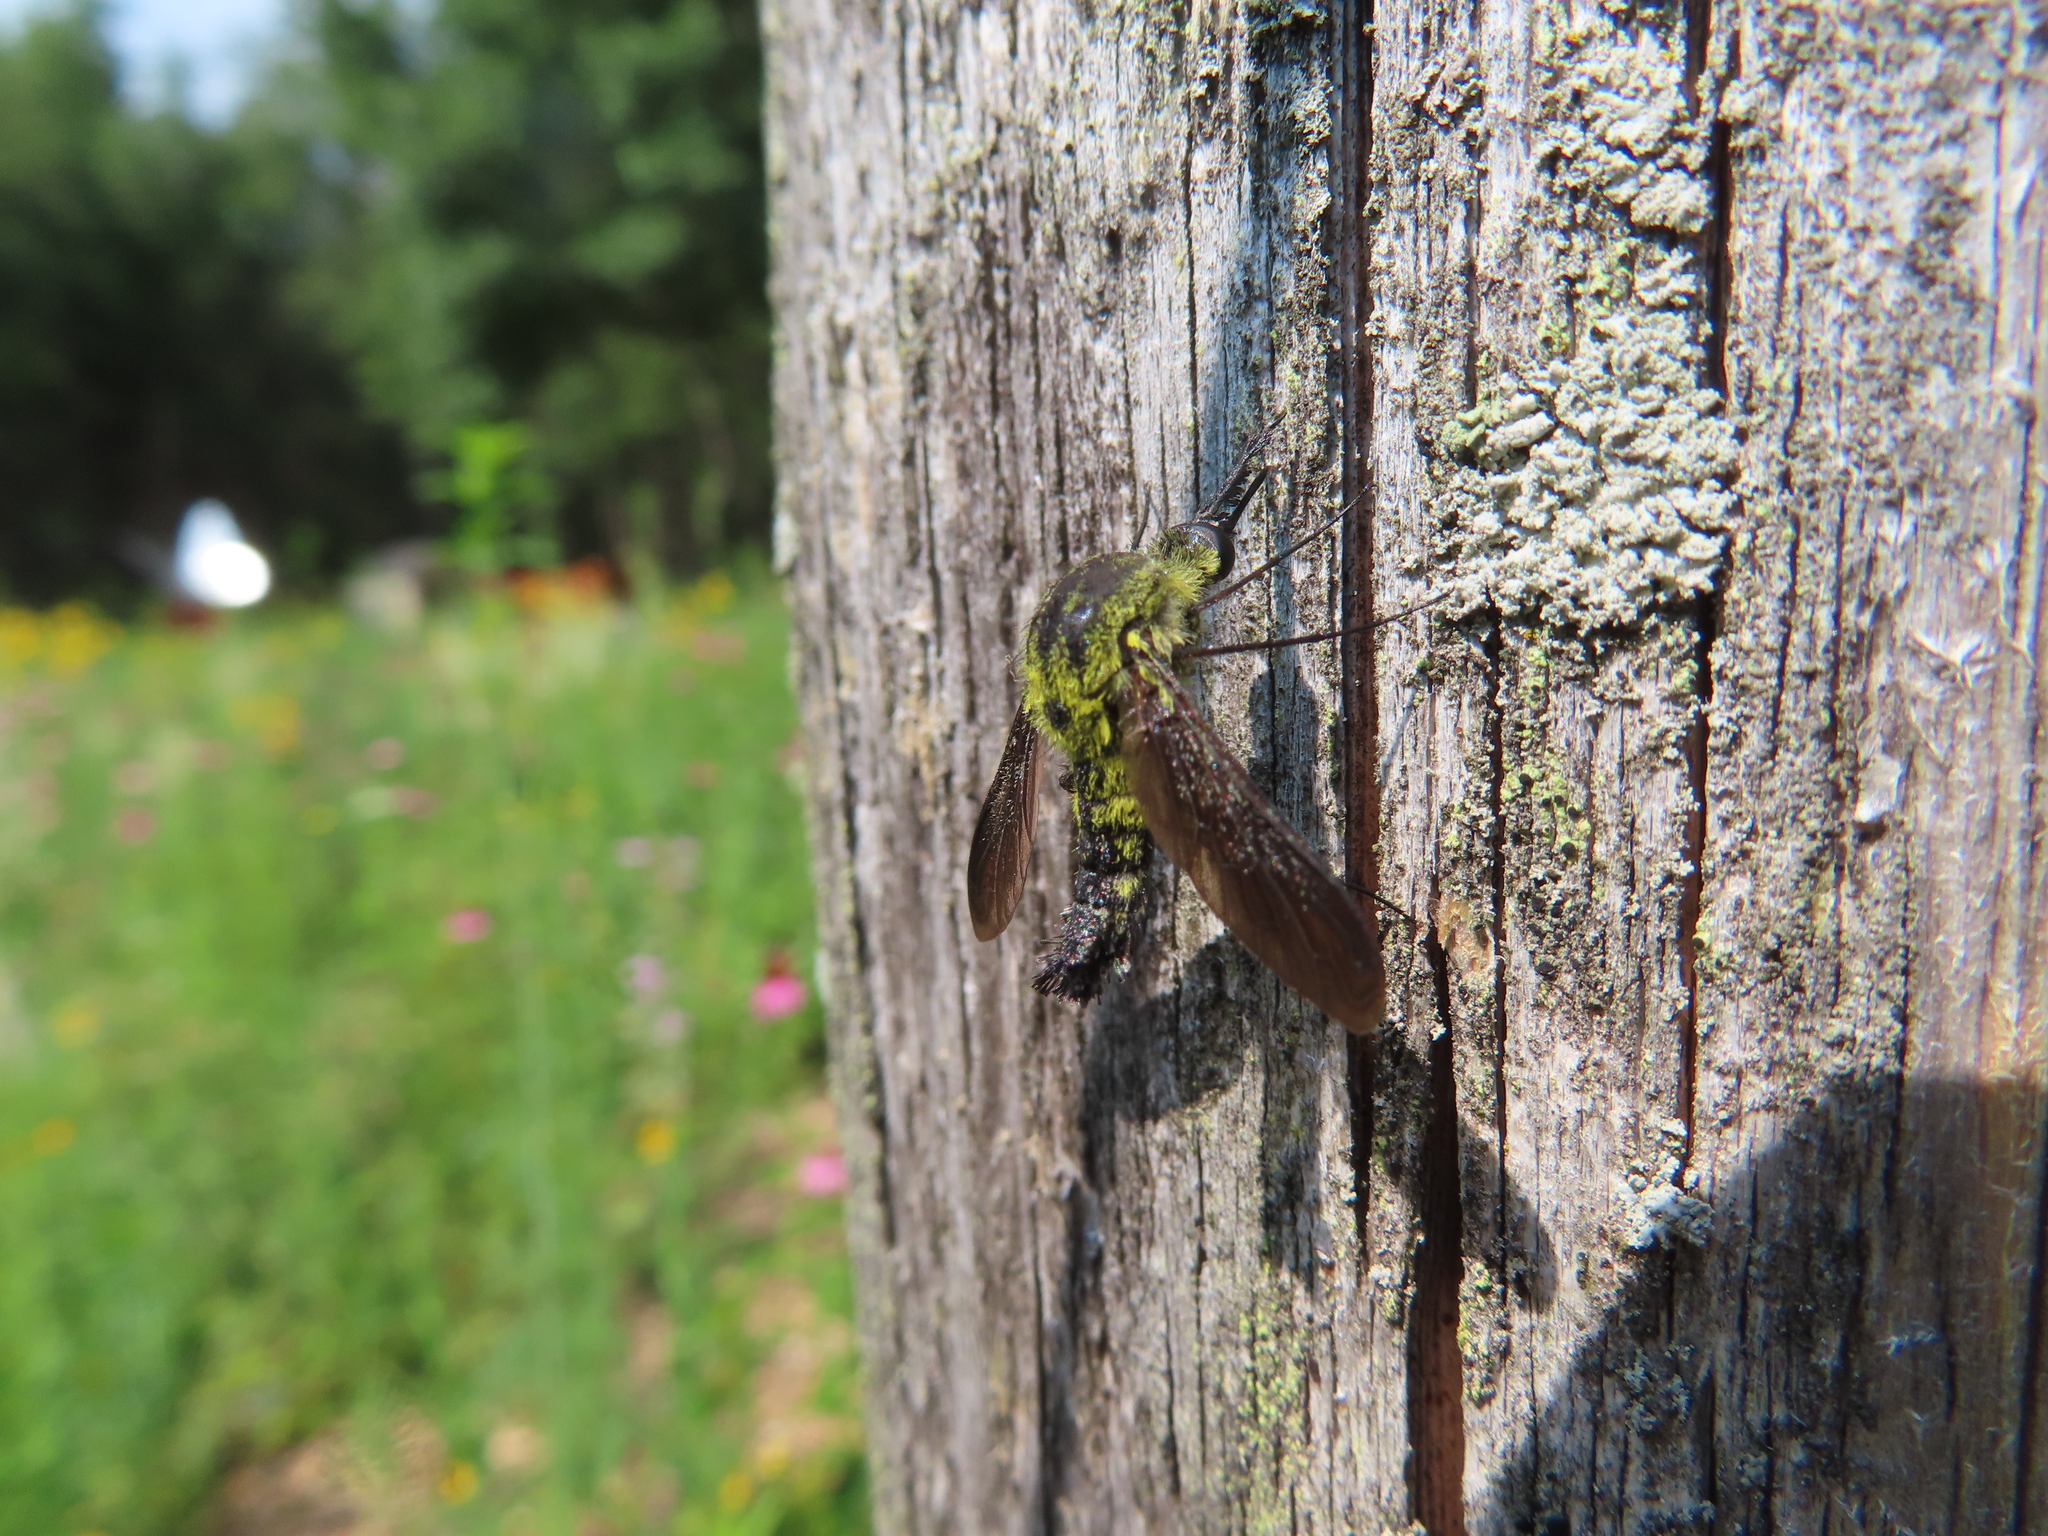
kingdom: Animalia
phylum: Arthropoda
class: Insecta
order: Diptera
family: Bombyliidae
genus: Lepidophora
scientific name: Lepidophora lutea
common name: Hunchback bee fly
